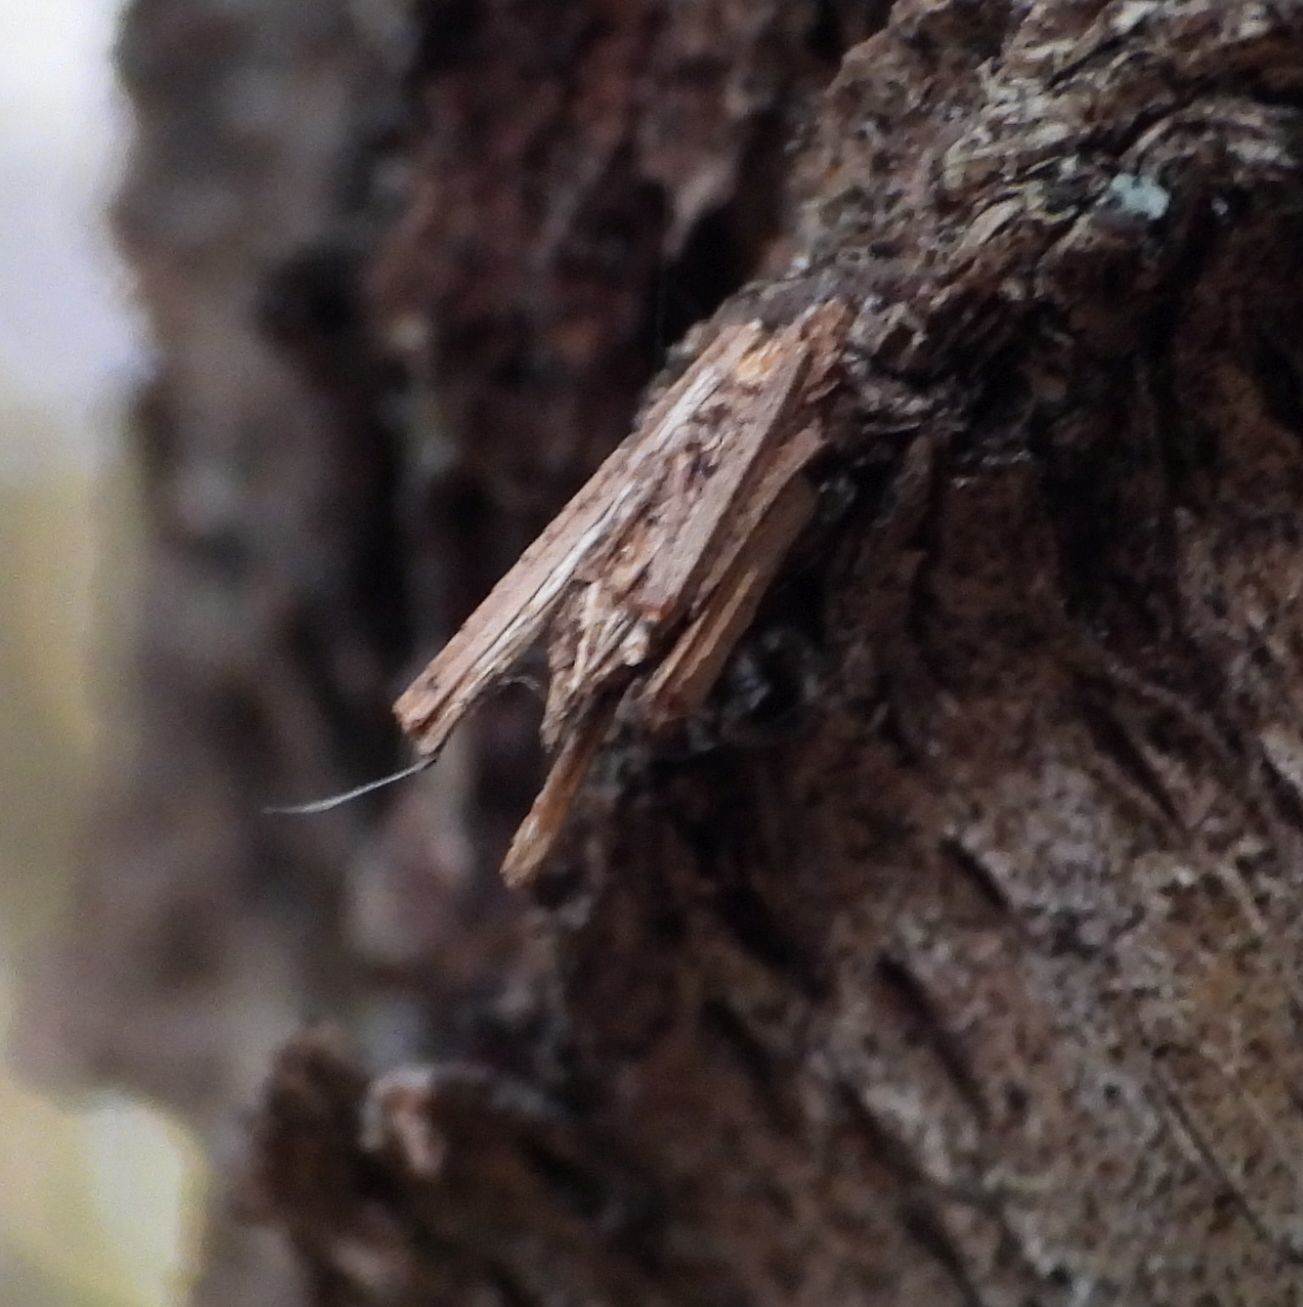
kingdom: Animalia
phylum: Arthropoda
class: Insecta
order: Lepidoptera
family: Psychidae
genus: Psyche
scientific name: Psyche casta
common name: Common sweep
